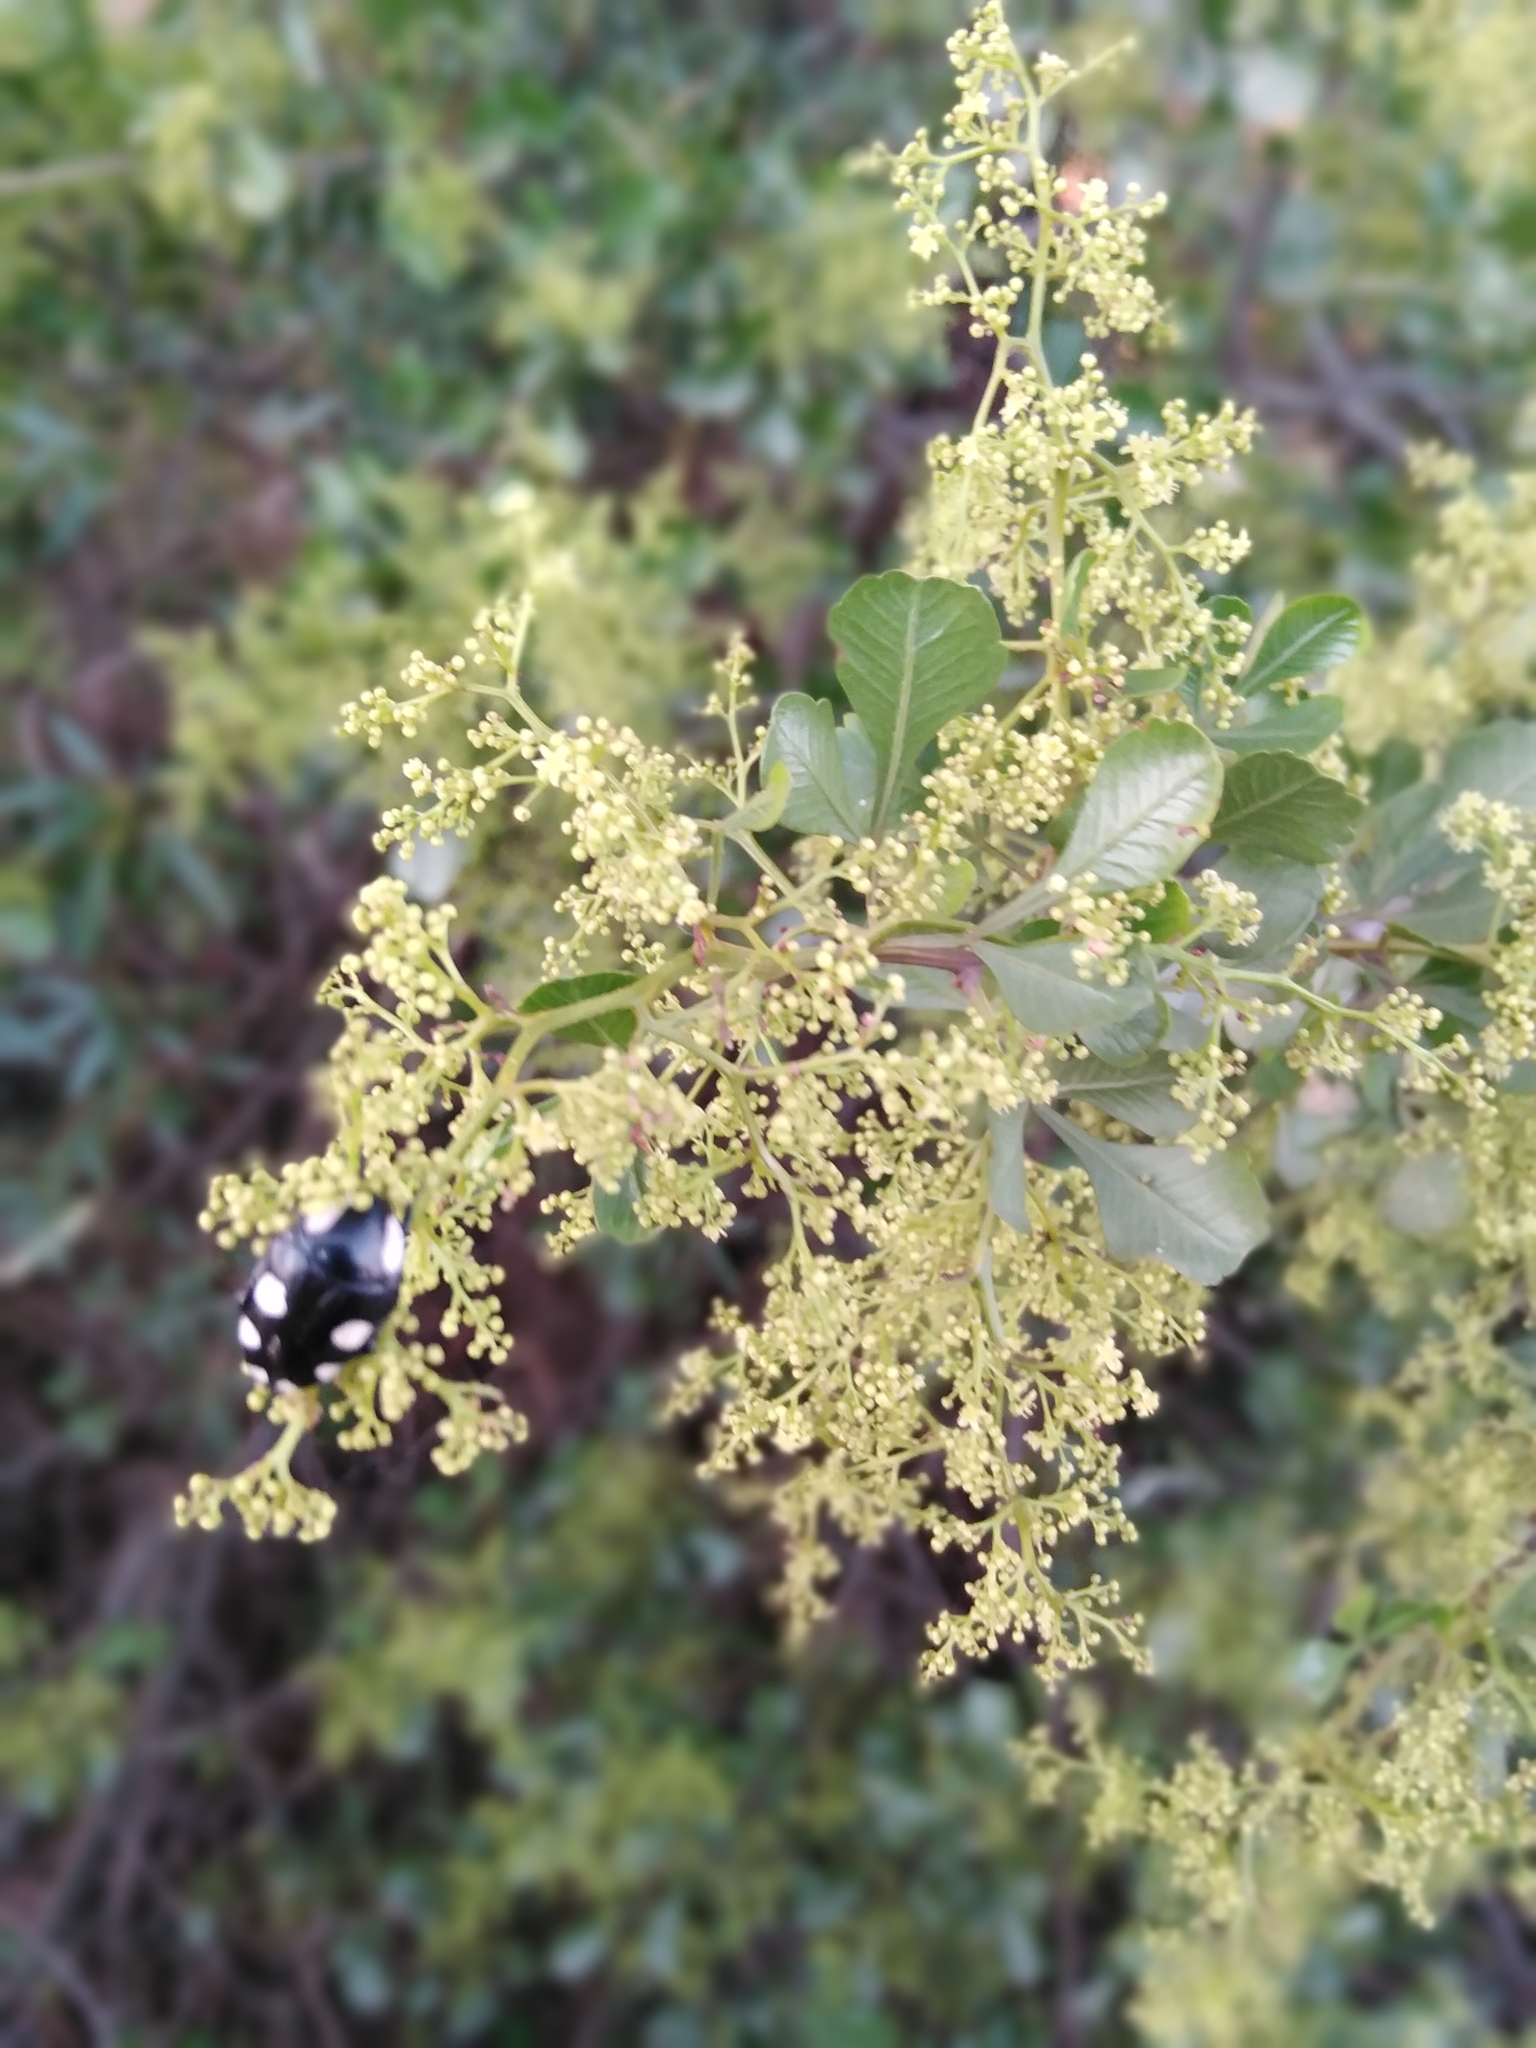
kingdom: Animalia
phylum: Arthropoda
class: Insecta
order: Coleoptera
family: Scarabaeidae
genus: Mausoleopsis
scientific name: Mausoleopsis amabilis
